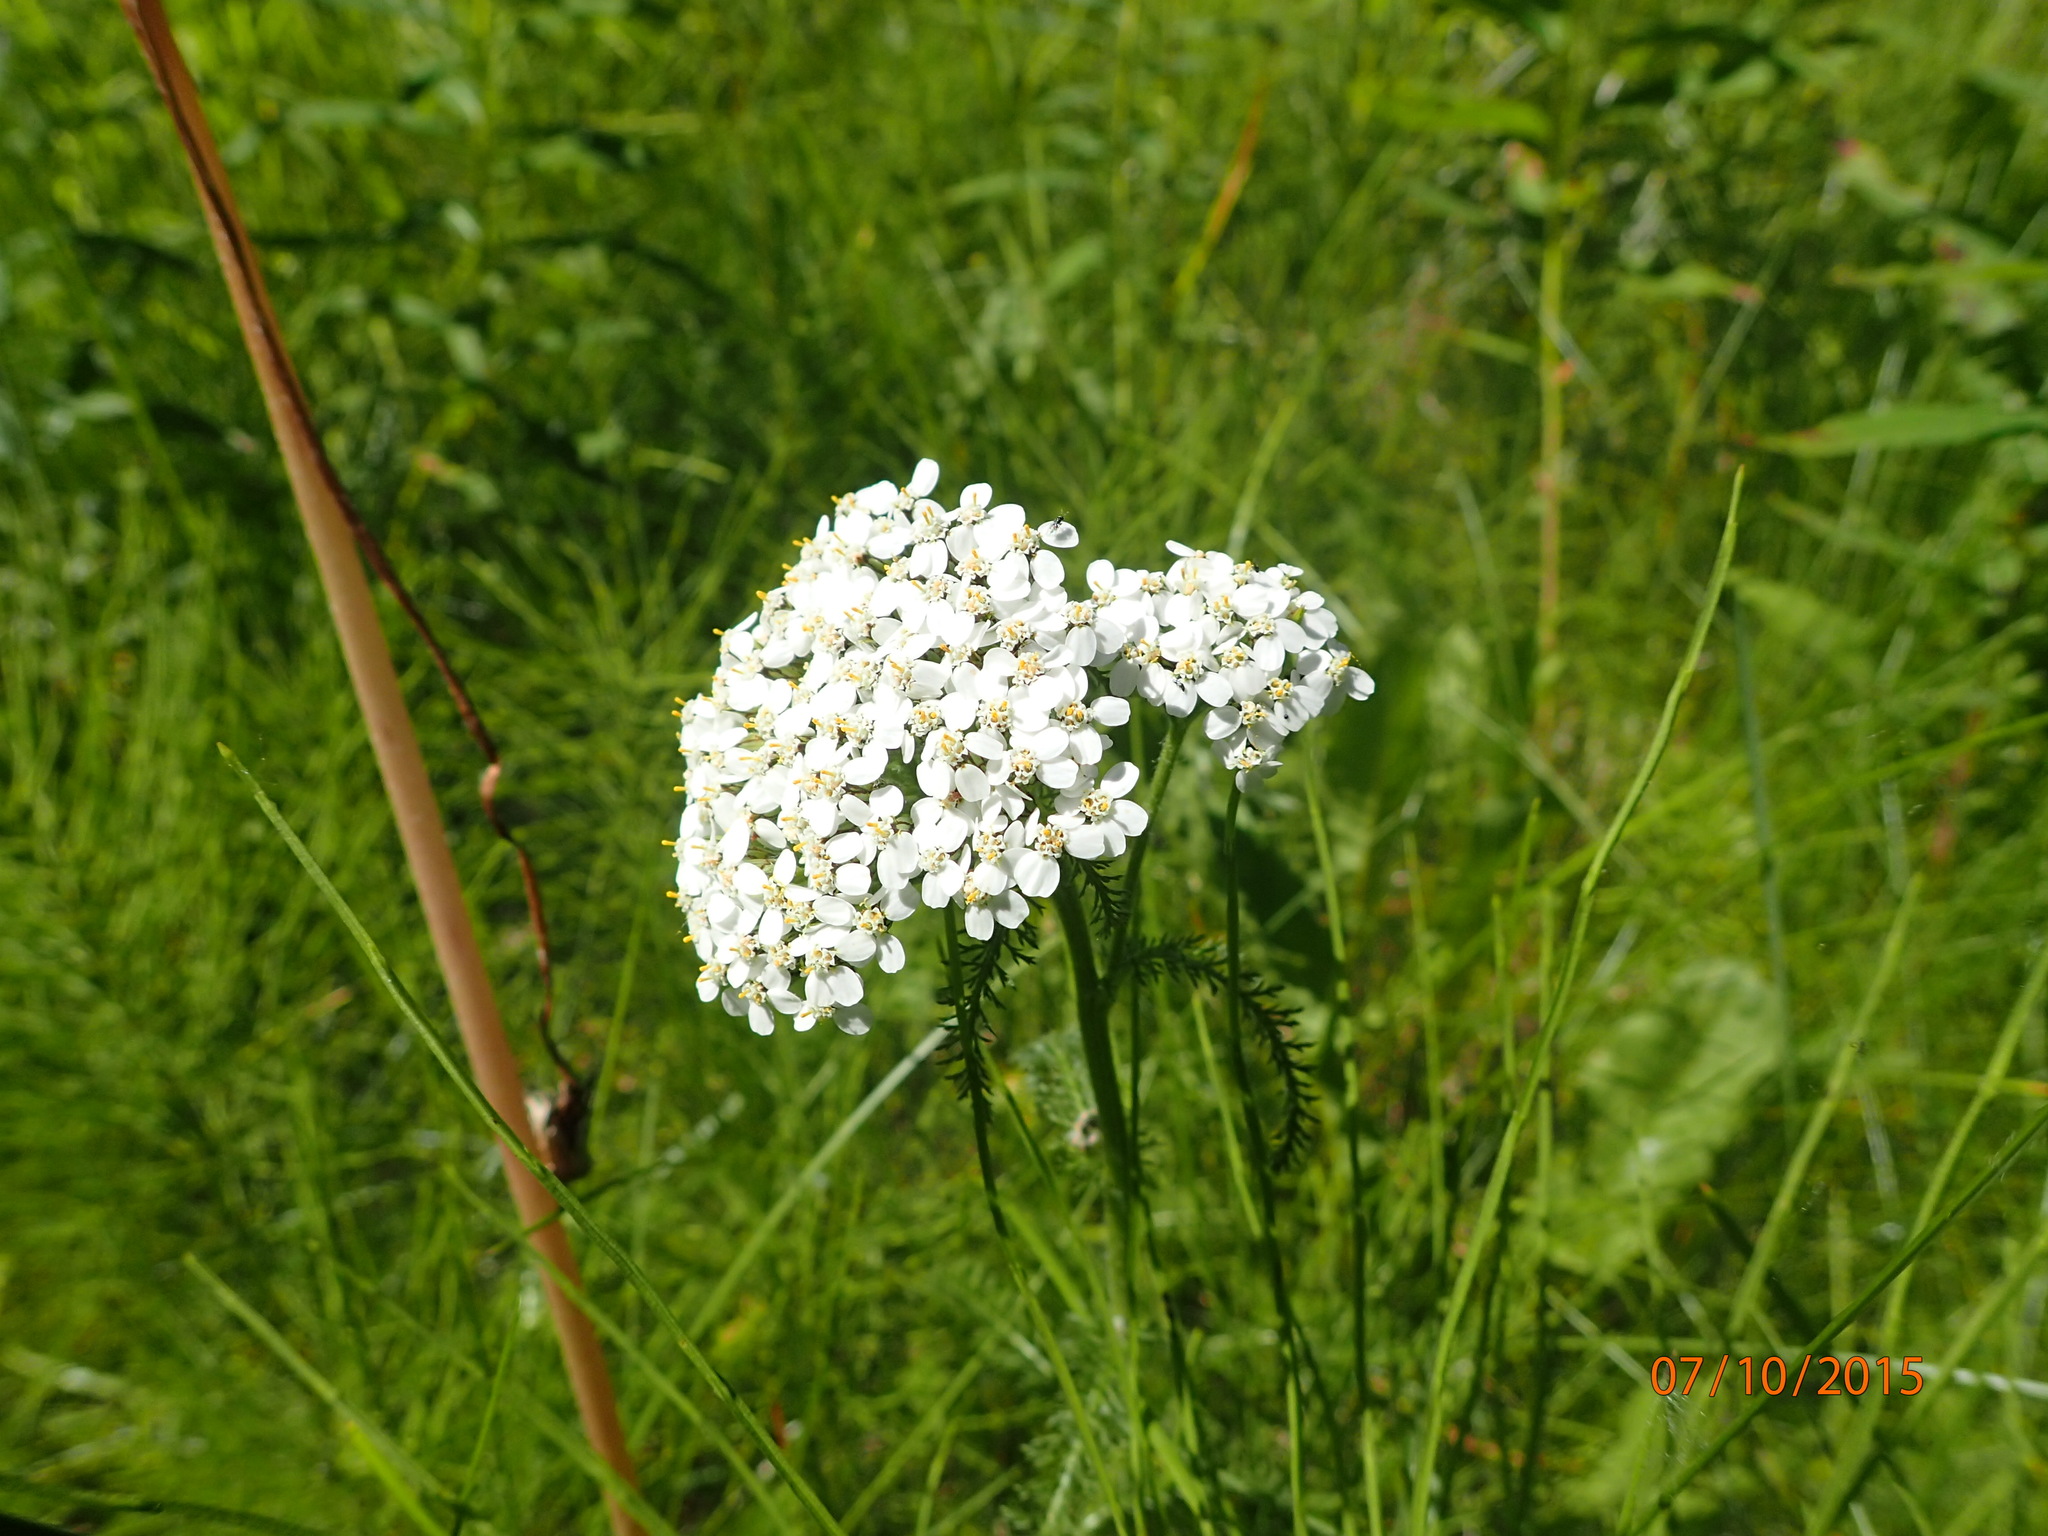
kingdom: Plantae
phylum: Tracheophyta
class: Magnoliopsida
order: Asterales
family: Asteraceae
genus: Achillea
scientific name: Achillea millefolium
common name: Yarrow
